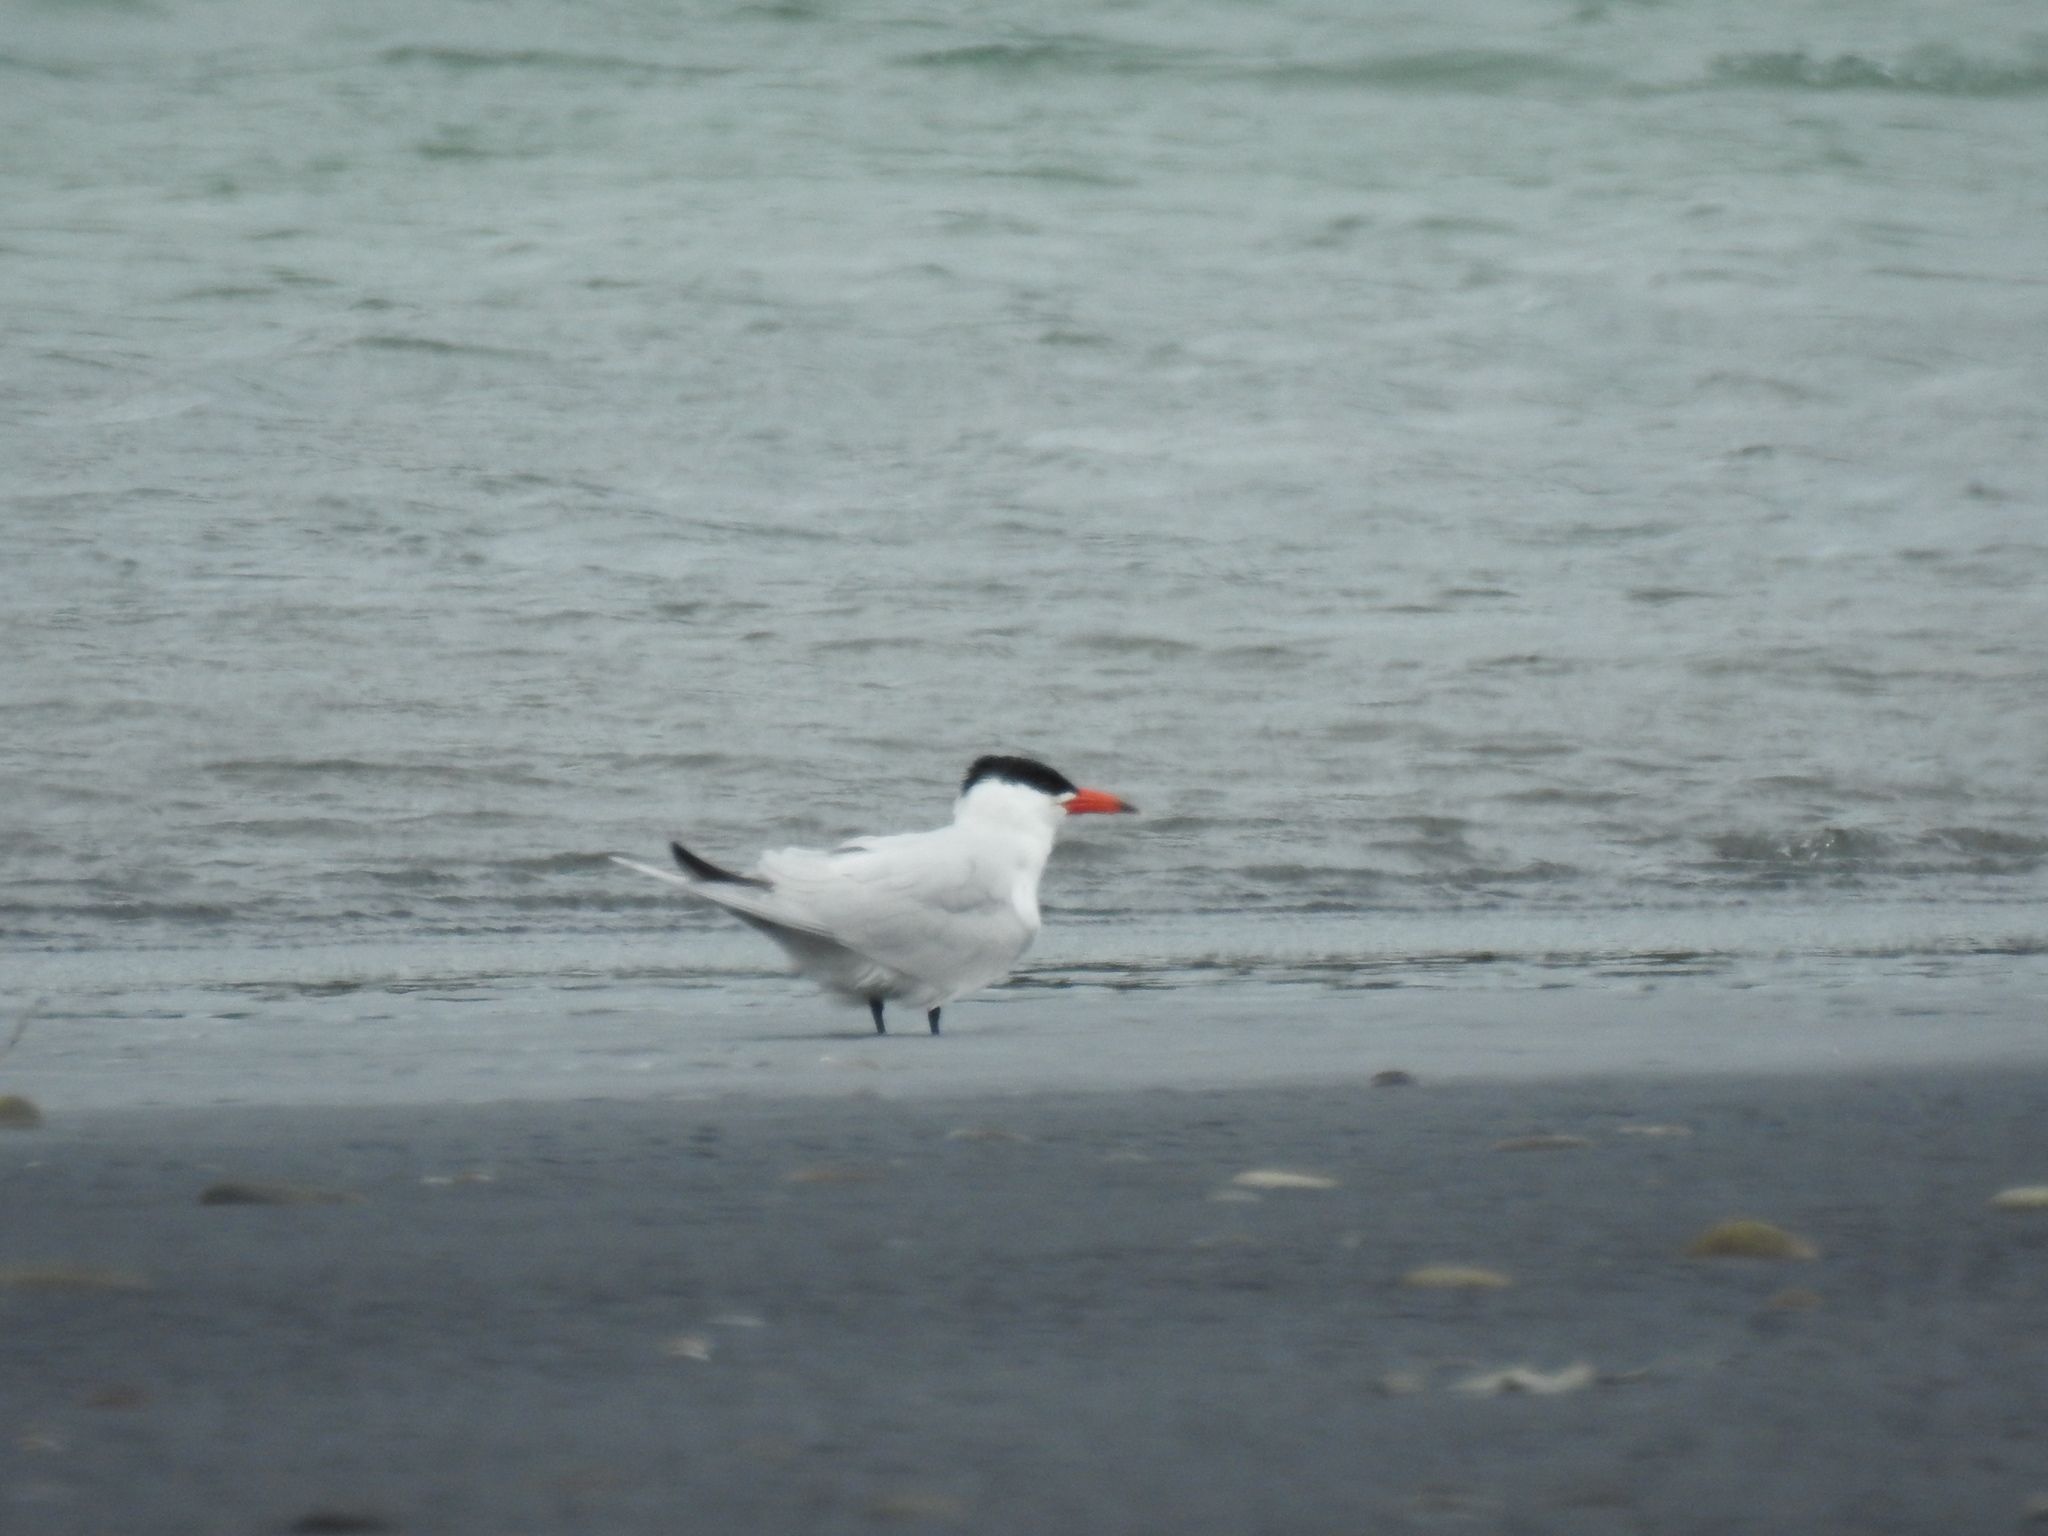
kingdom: Animalia
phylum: Chordata
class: Aves
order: Charadriiformes
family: Laridae
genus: Hydroprogne
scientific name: Hydroprogne caspia
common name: Caspian tern
